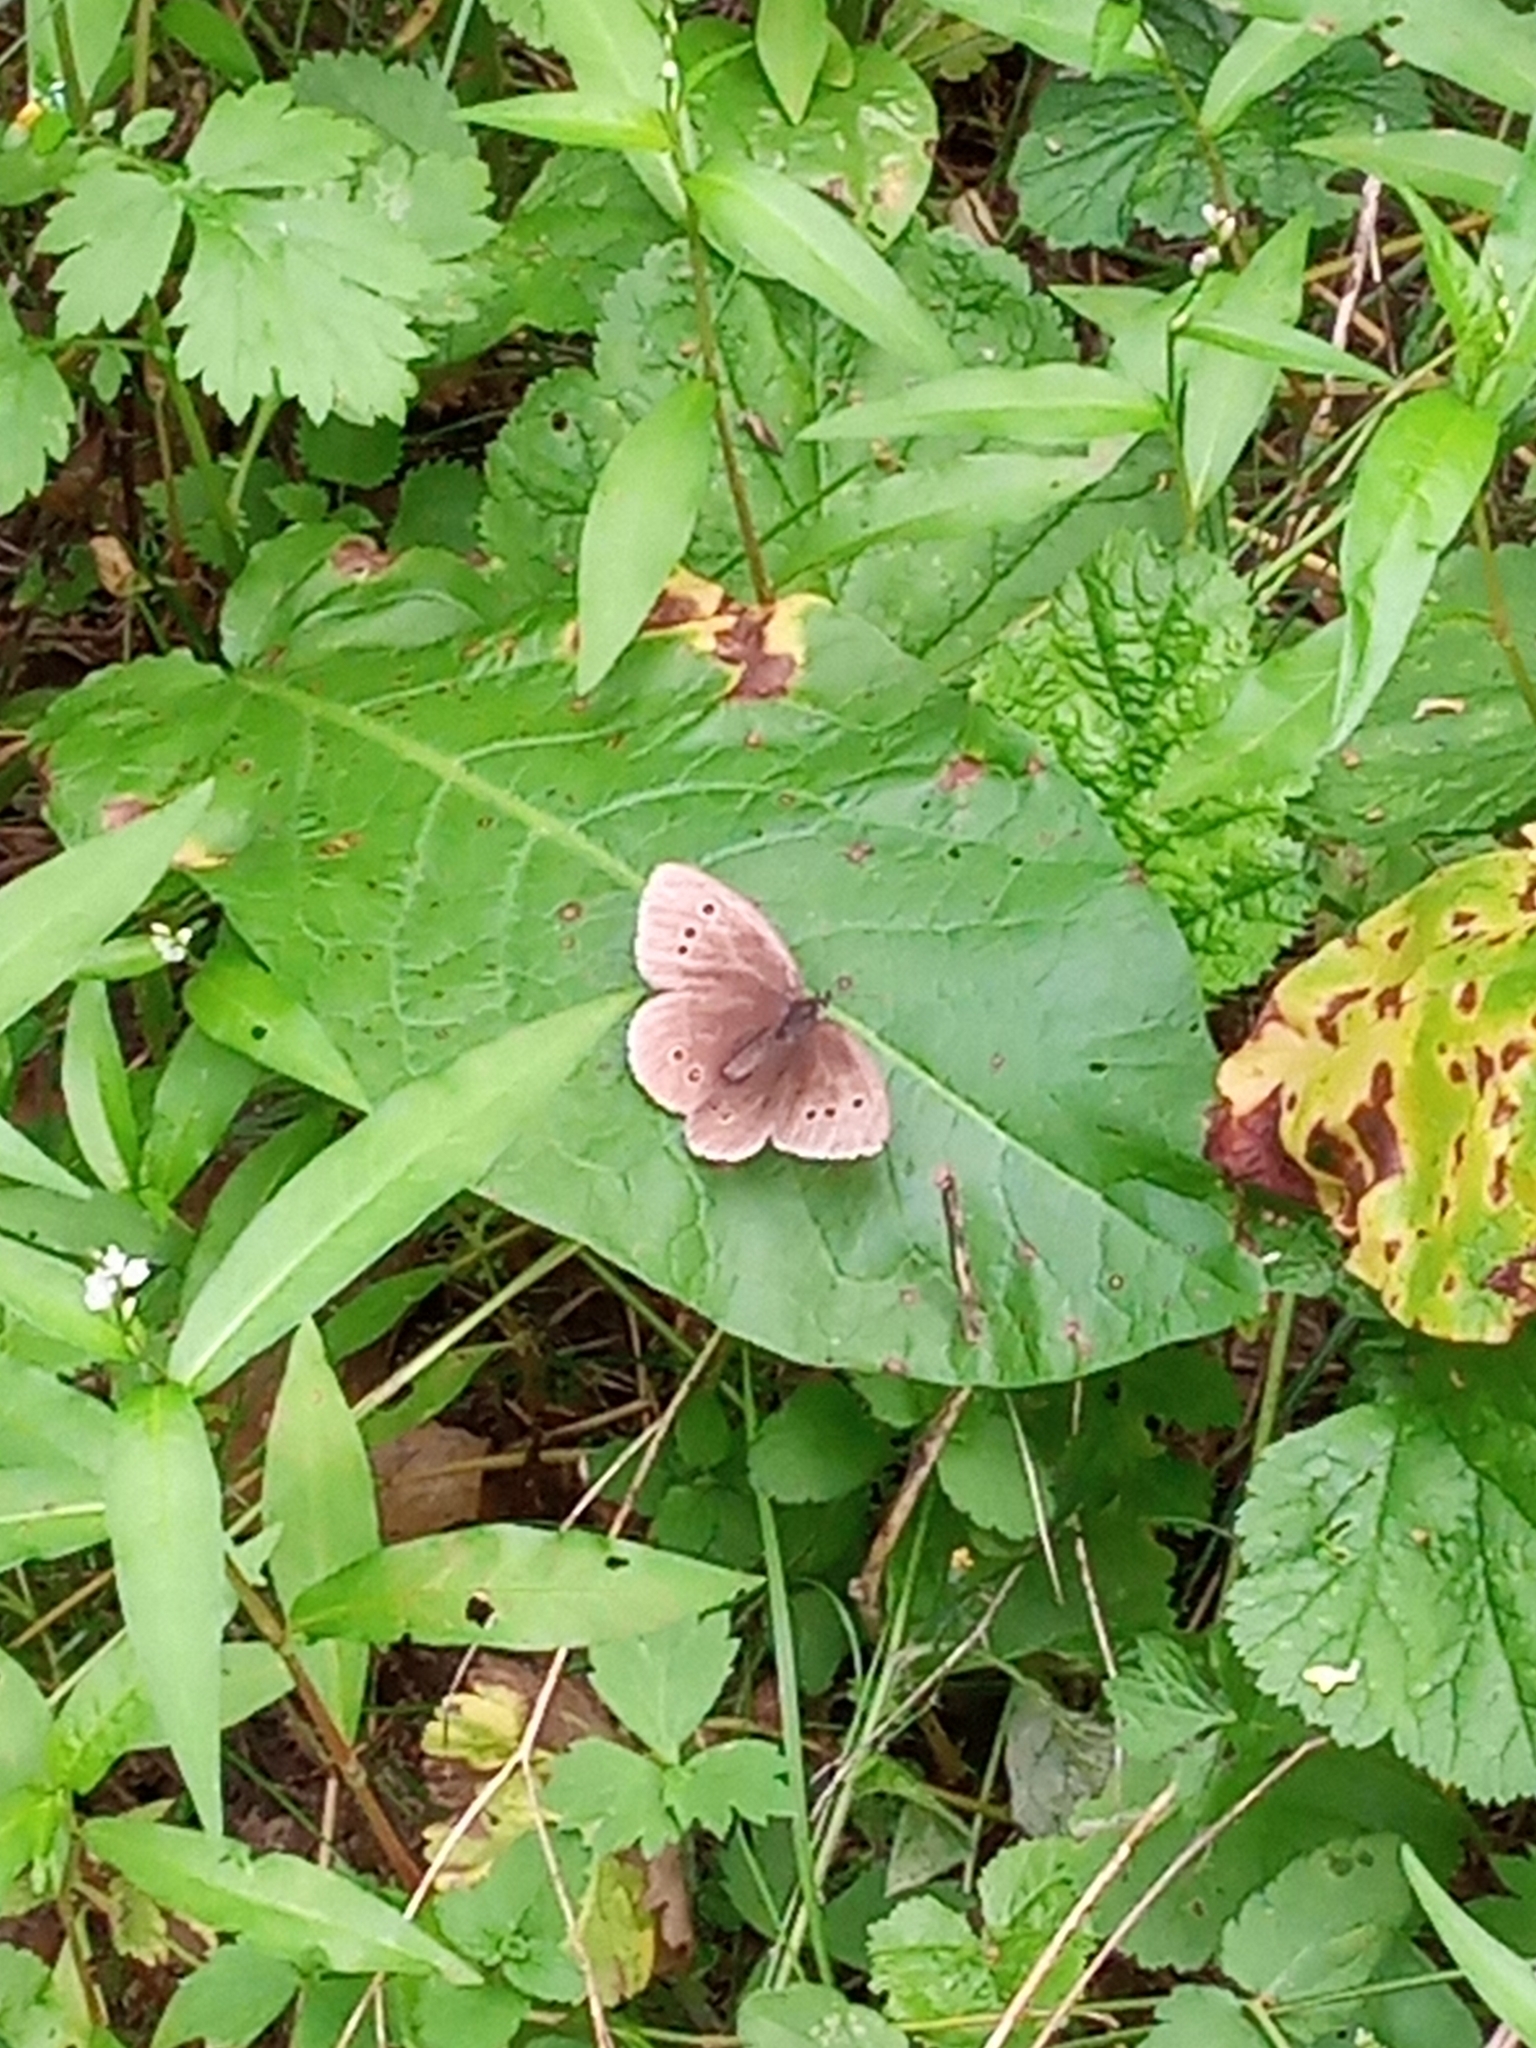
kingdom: Animalia
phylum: Arthropoda
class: Insecta
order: Lepidoptera
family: Nymphalidae
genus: Aphantopus
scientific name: Aphantopus hyperantus
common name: Ringlet
